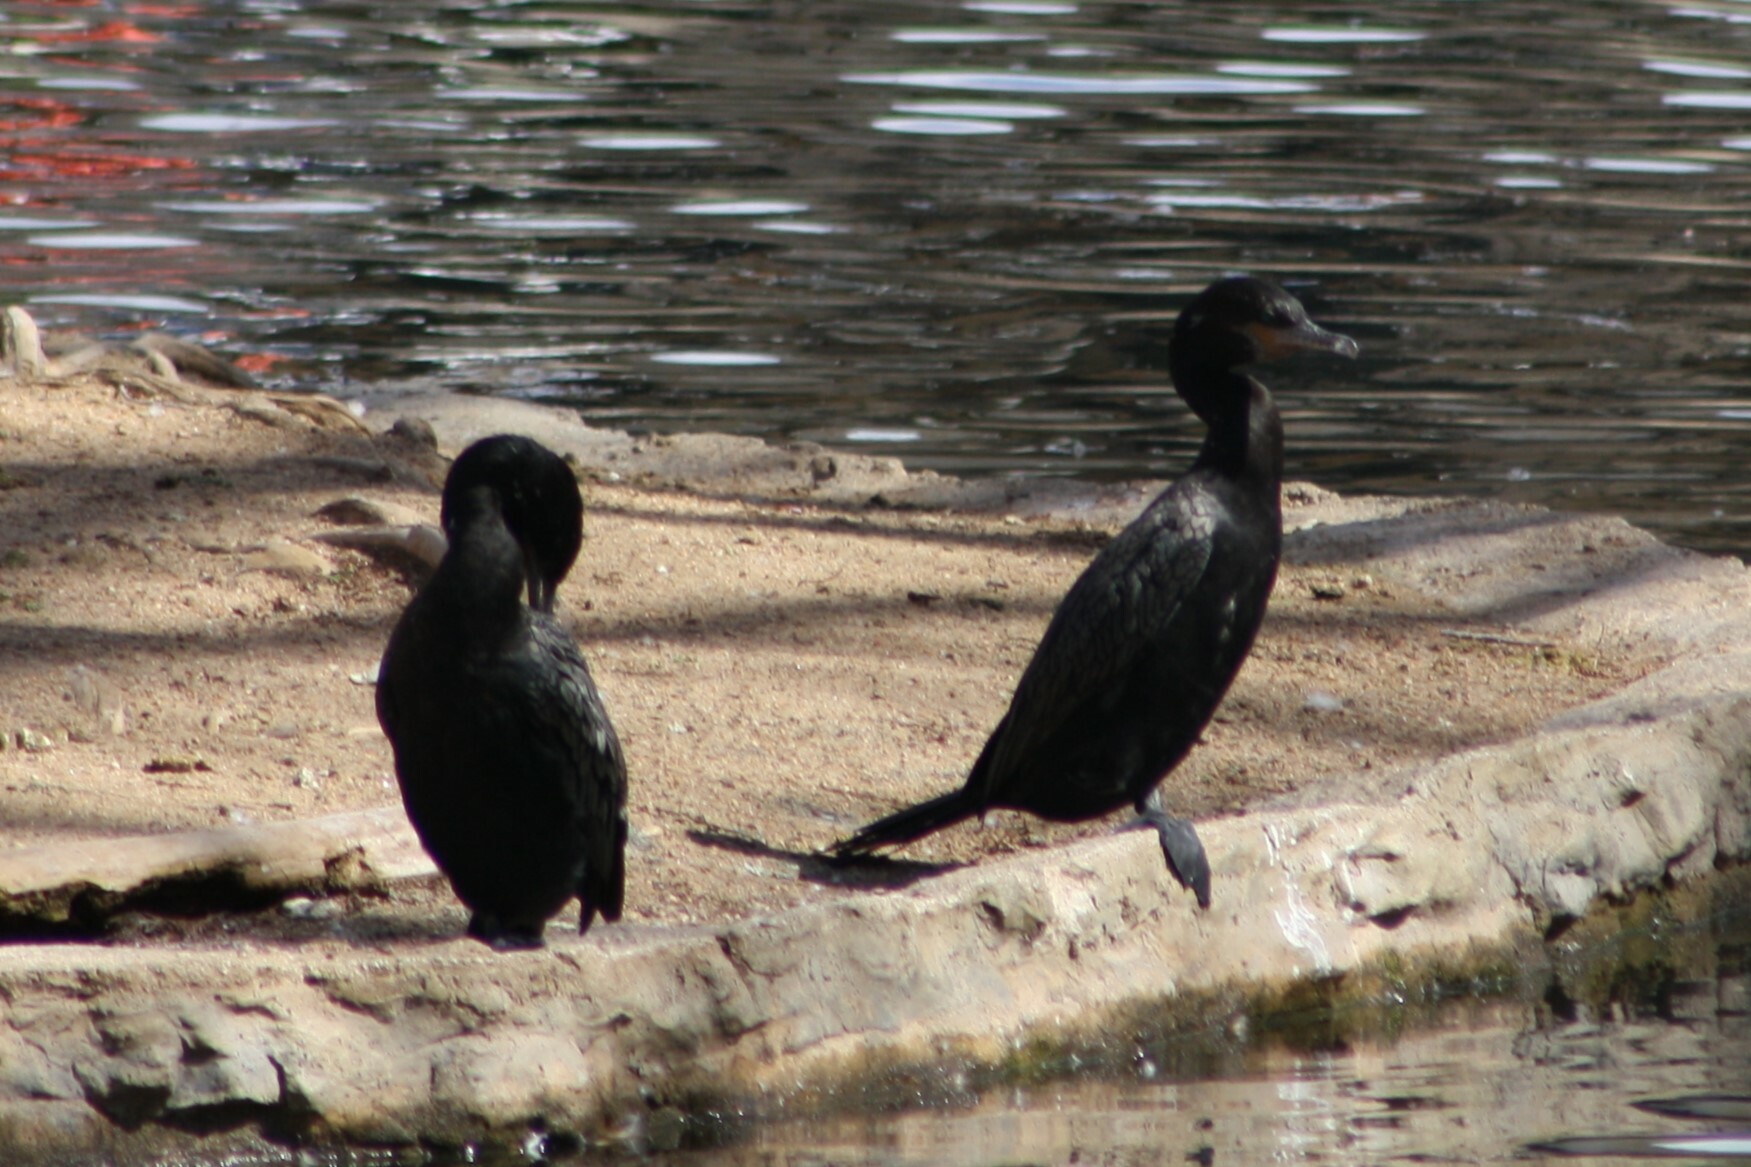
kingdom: Animalia
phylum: Chordata
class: Aves
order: Suliformes
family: Phalacrocoracidae
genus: Phalacrocorax
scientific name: Phalacrocorax brasilianus
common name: Neotropic cormorant
